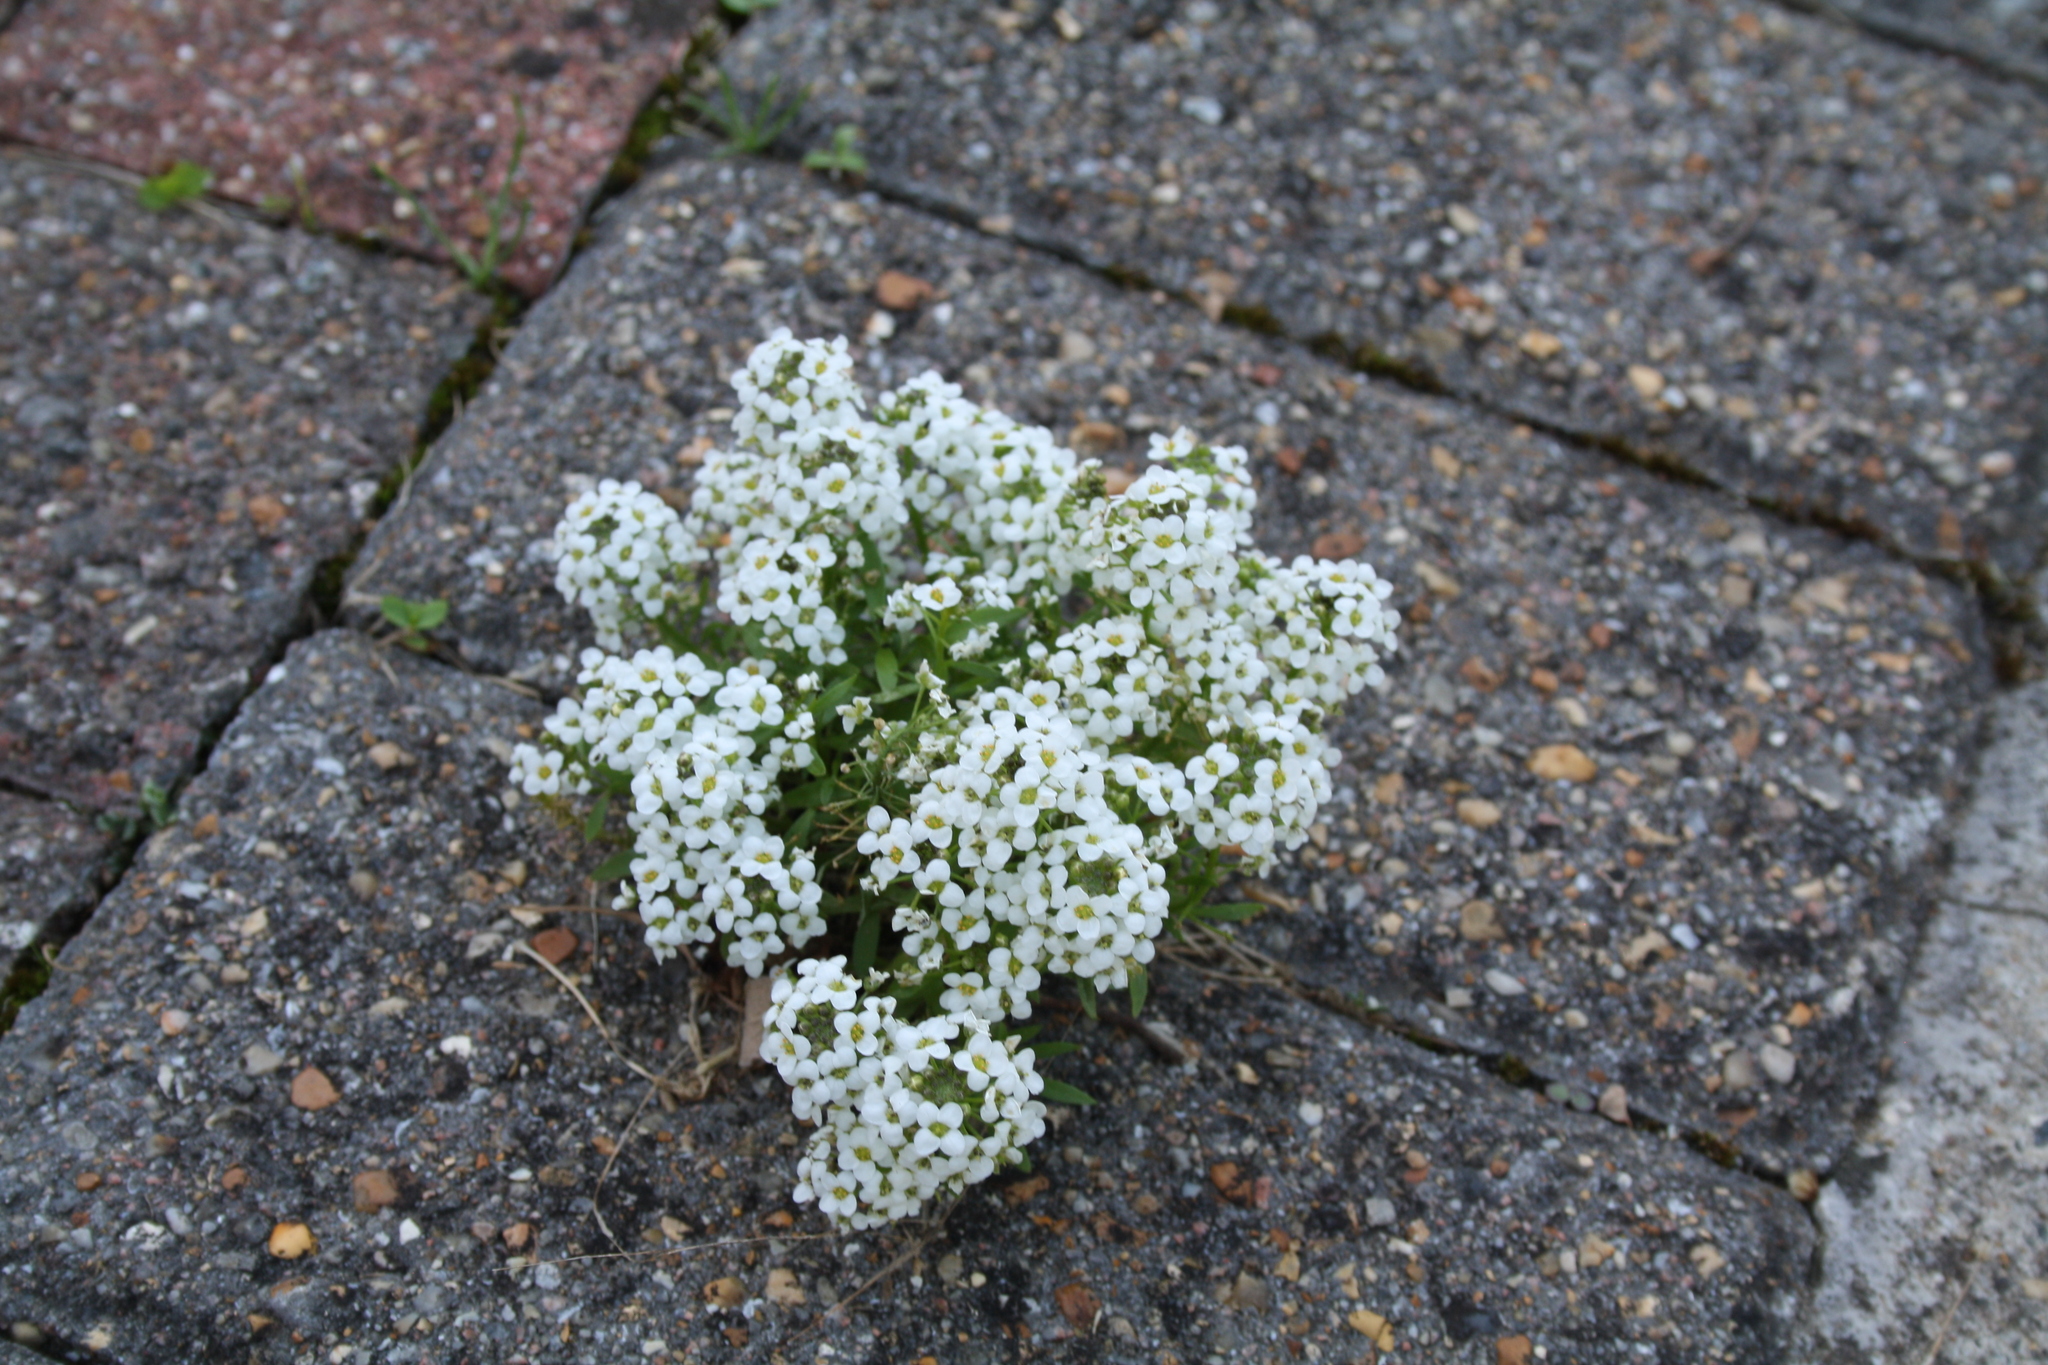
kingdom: Plantae
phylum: Tracheophyta
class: Magnoliopsida
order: Brassicales
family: Brassicaceae
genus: Lobularia
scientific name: Lobularia maritima
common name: Sweet alison
